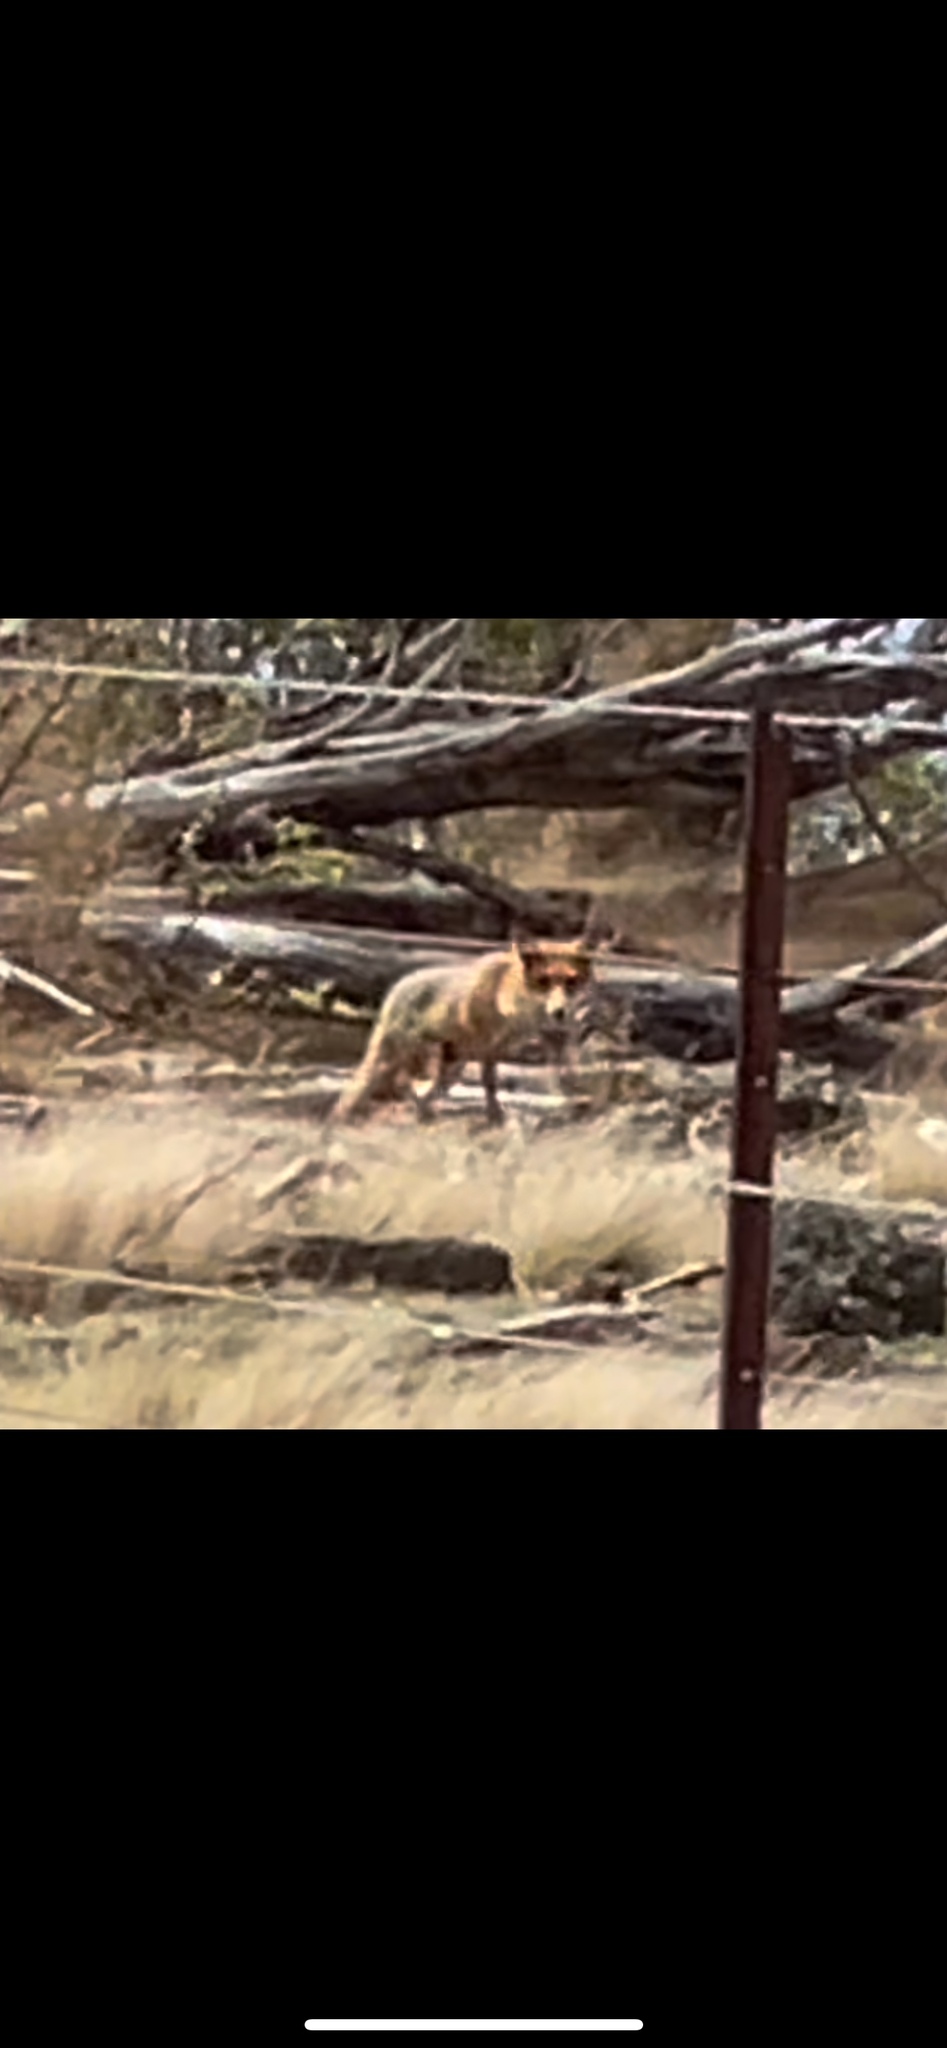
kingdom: Animalia
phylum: Chordata
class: Mammalia
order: Carnivora
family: Canidae
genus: Vulpes
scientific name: Vulpes vulpes
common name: Red fox
